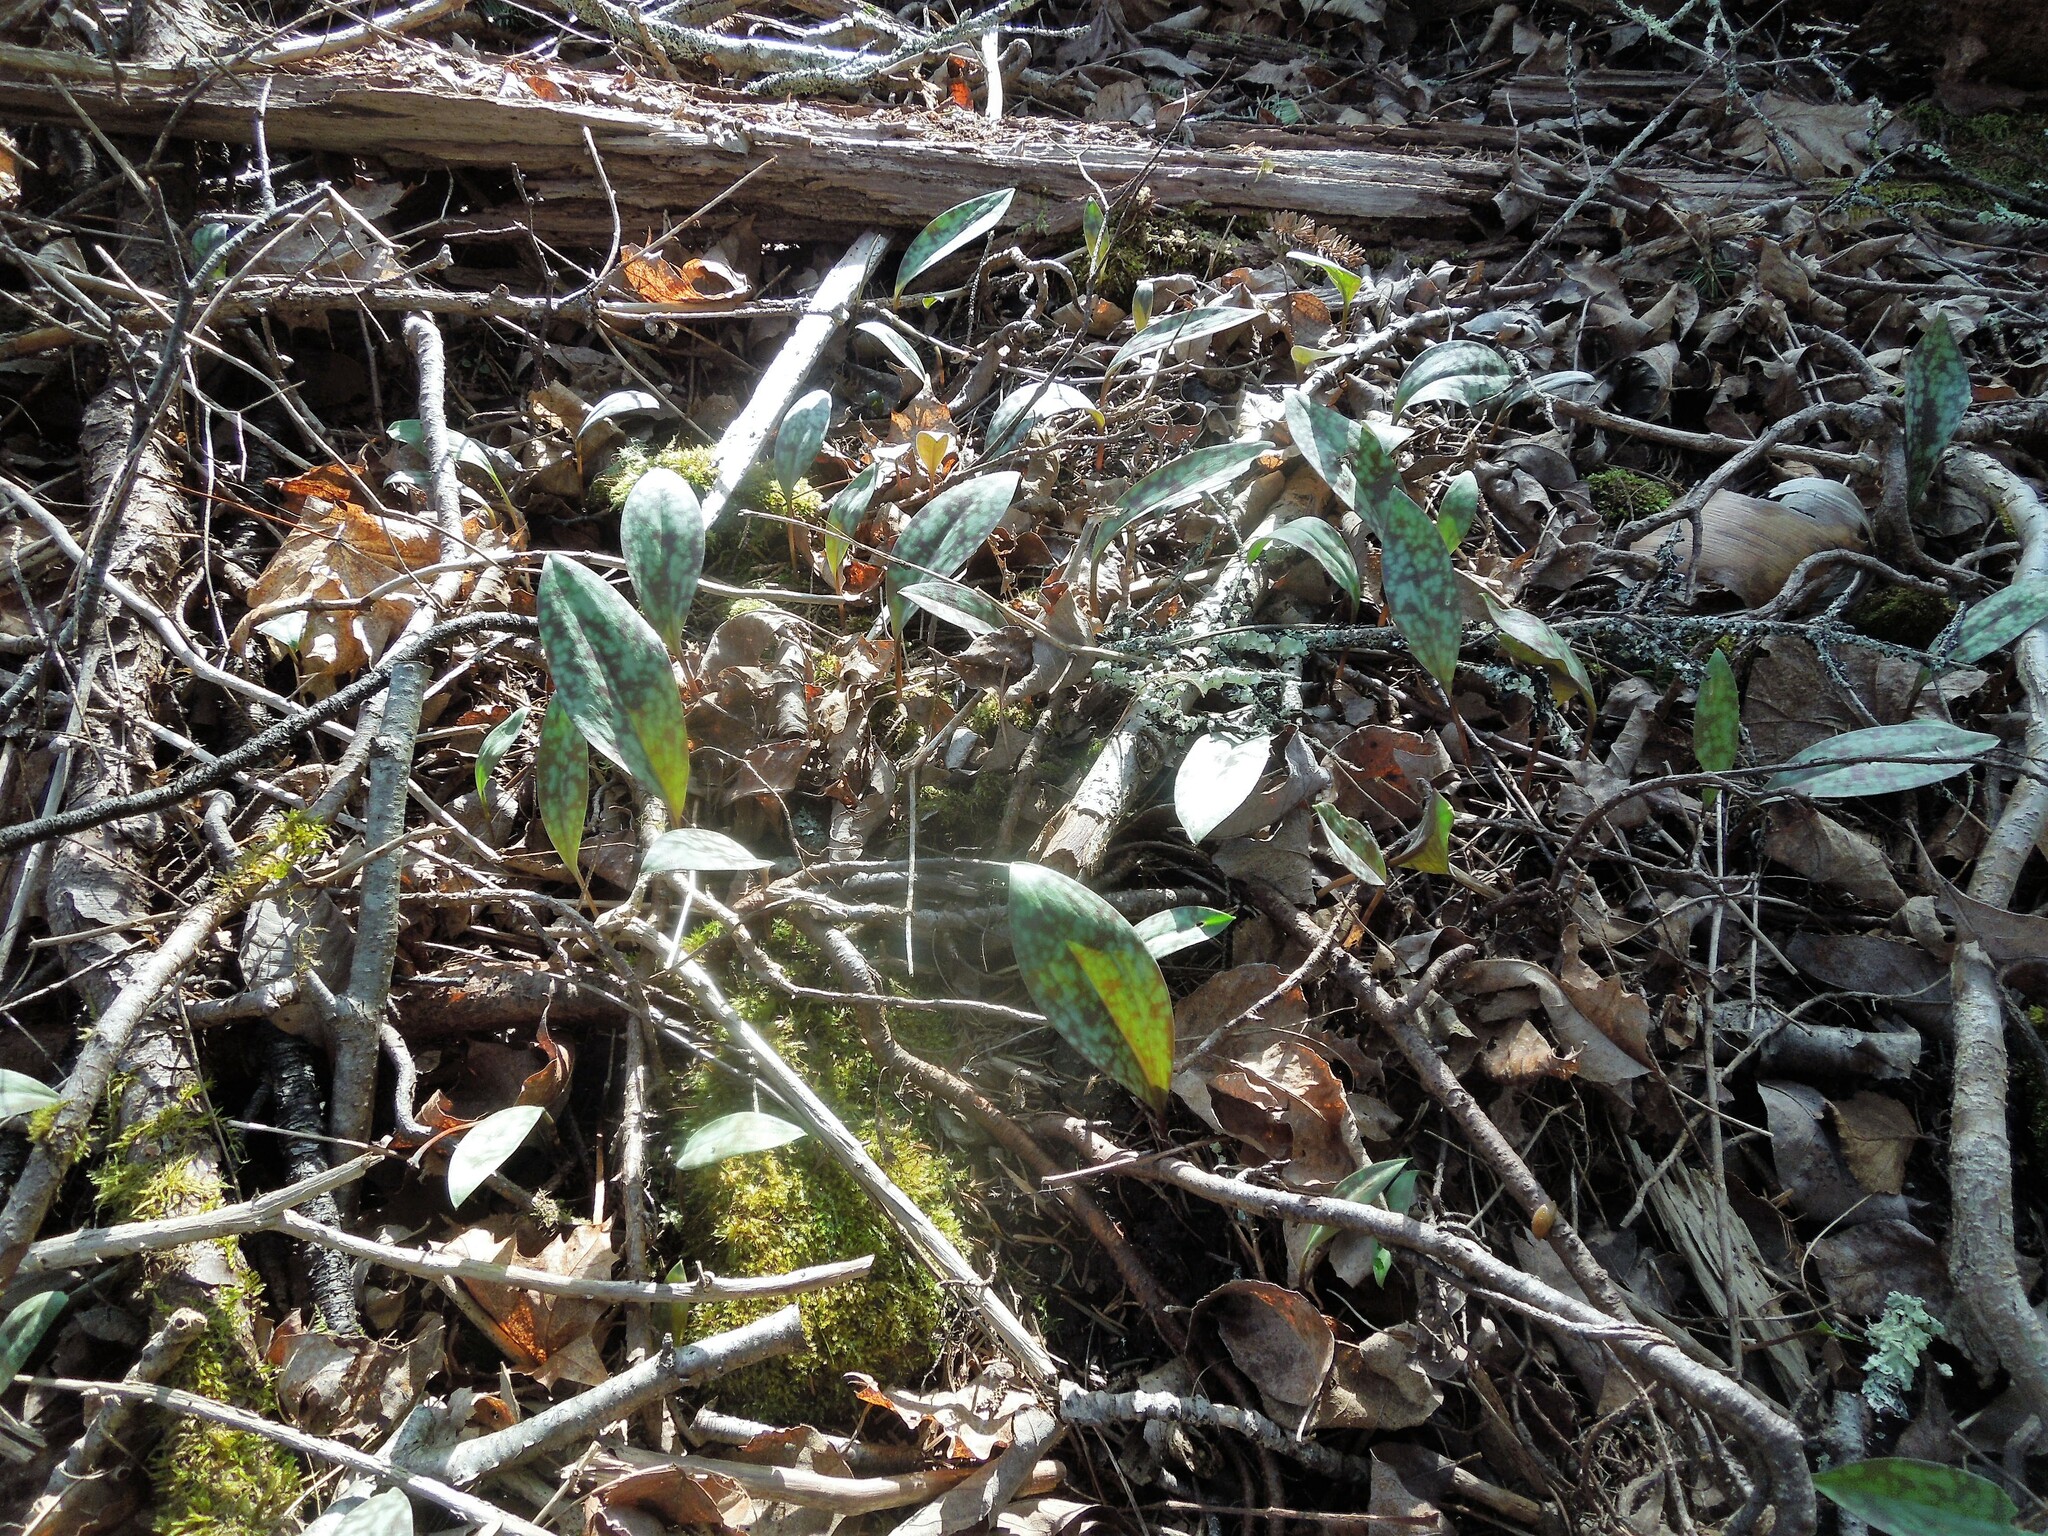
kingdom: Plantae
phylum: Tracheophyta
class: Liliopsida
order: Liliales
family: Liliaceae
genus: Erythronium
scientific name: Erythronium americanum
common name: Yellow adder's-tongue
